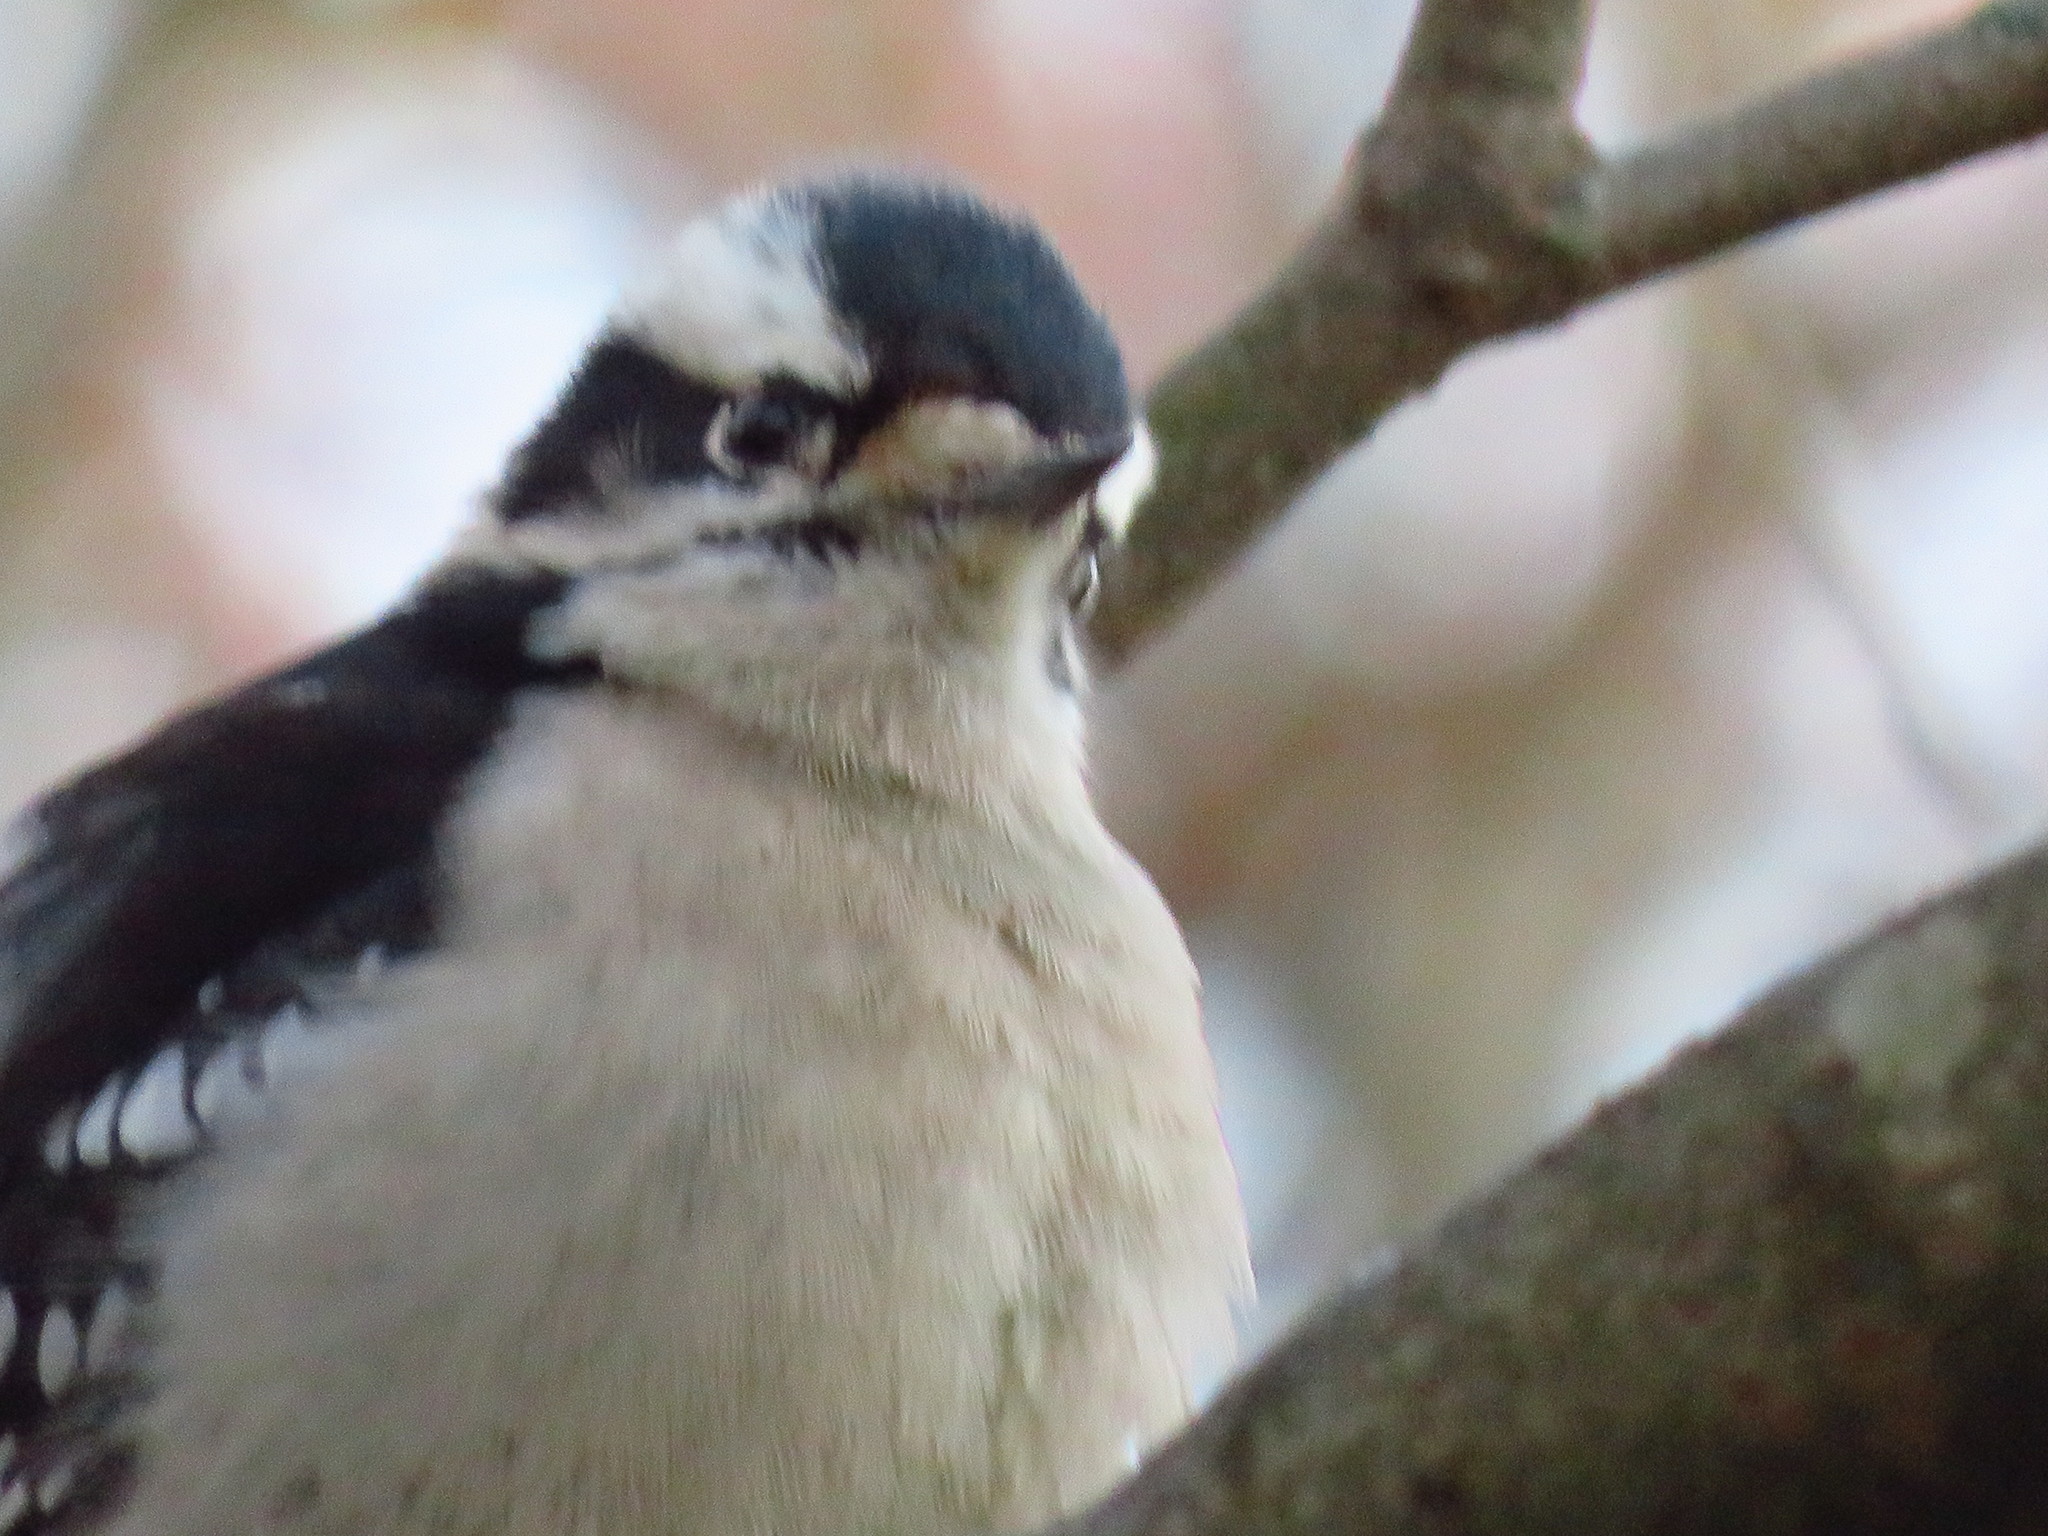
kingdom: Animalia
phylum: Chordata
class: Aves
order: Piciformes
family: Picidae
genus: Dryobates
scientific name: Dryobates pubescens
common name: Downy woodpecker
